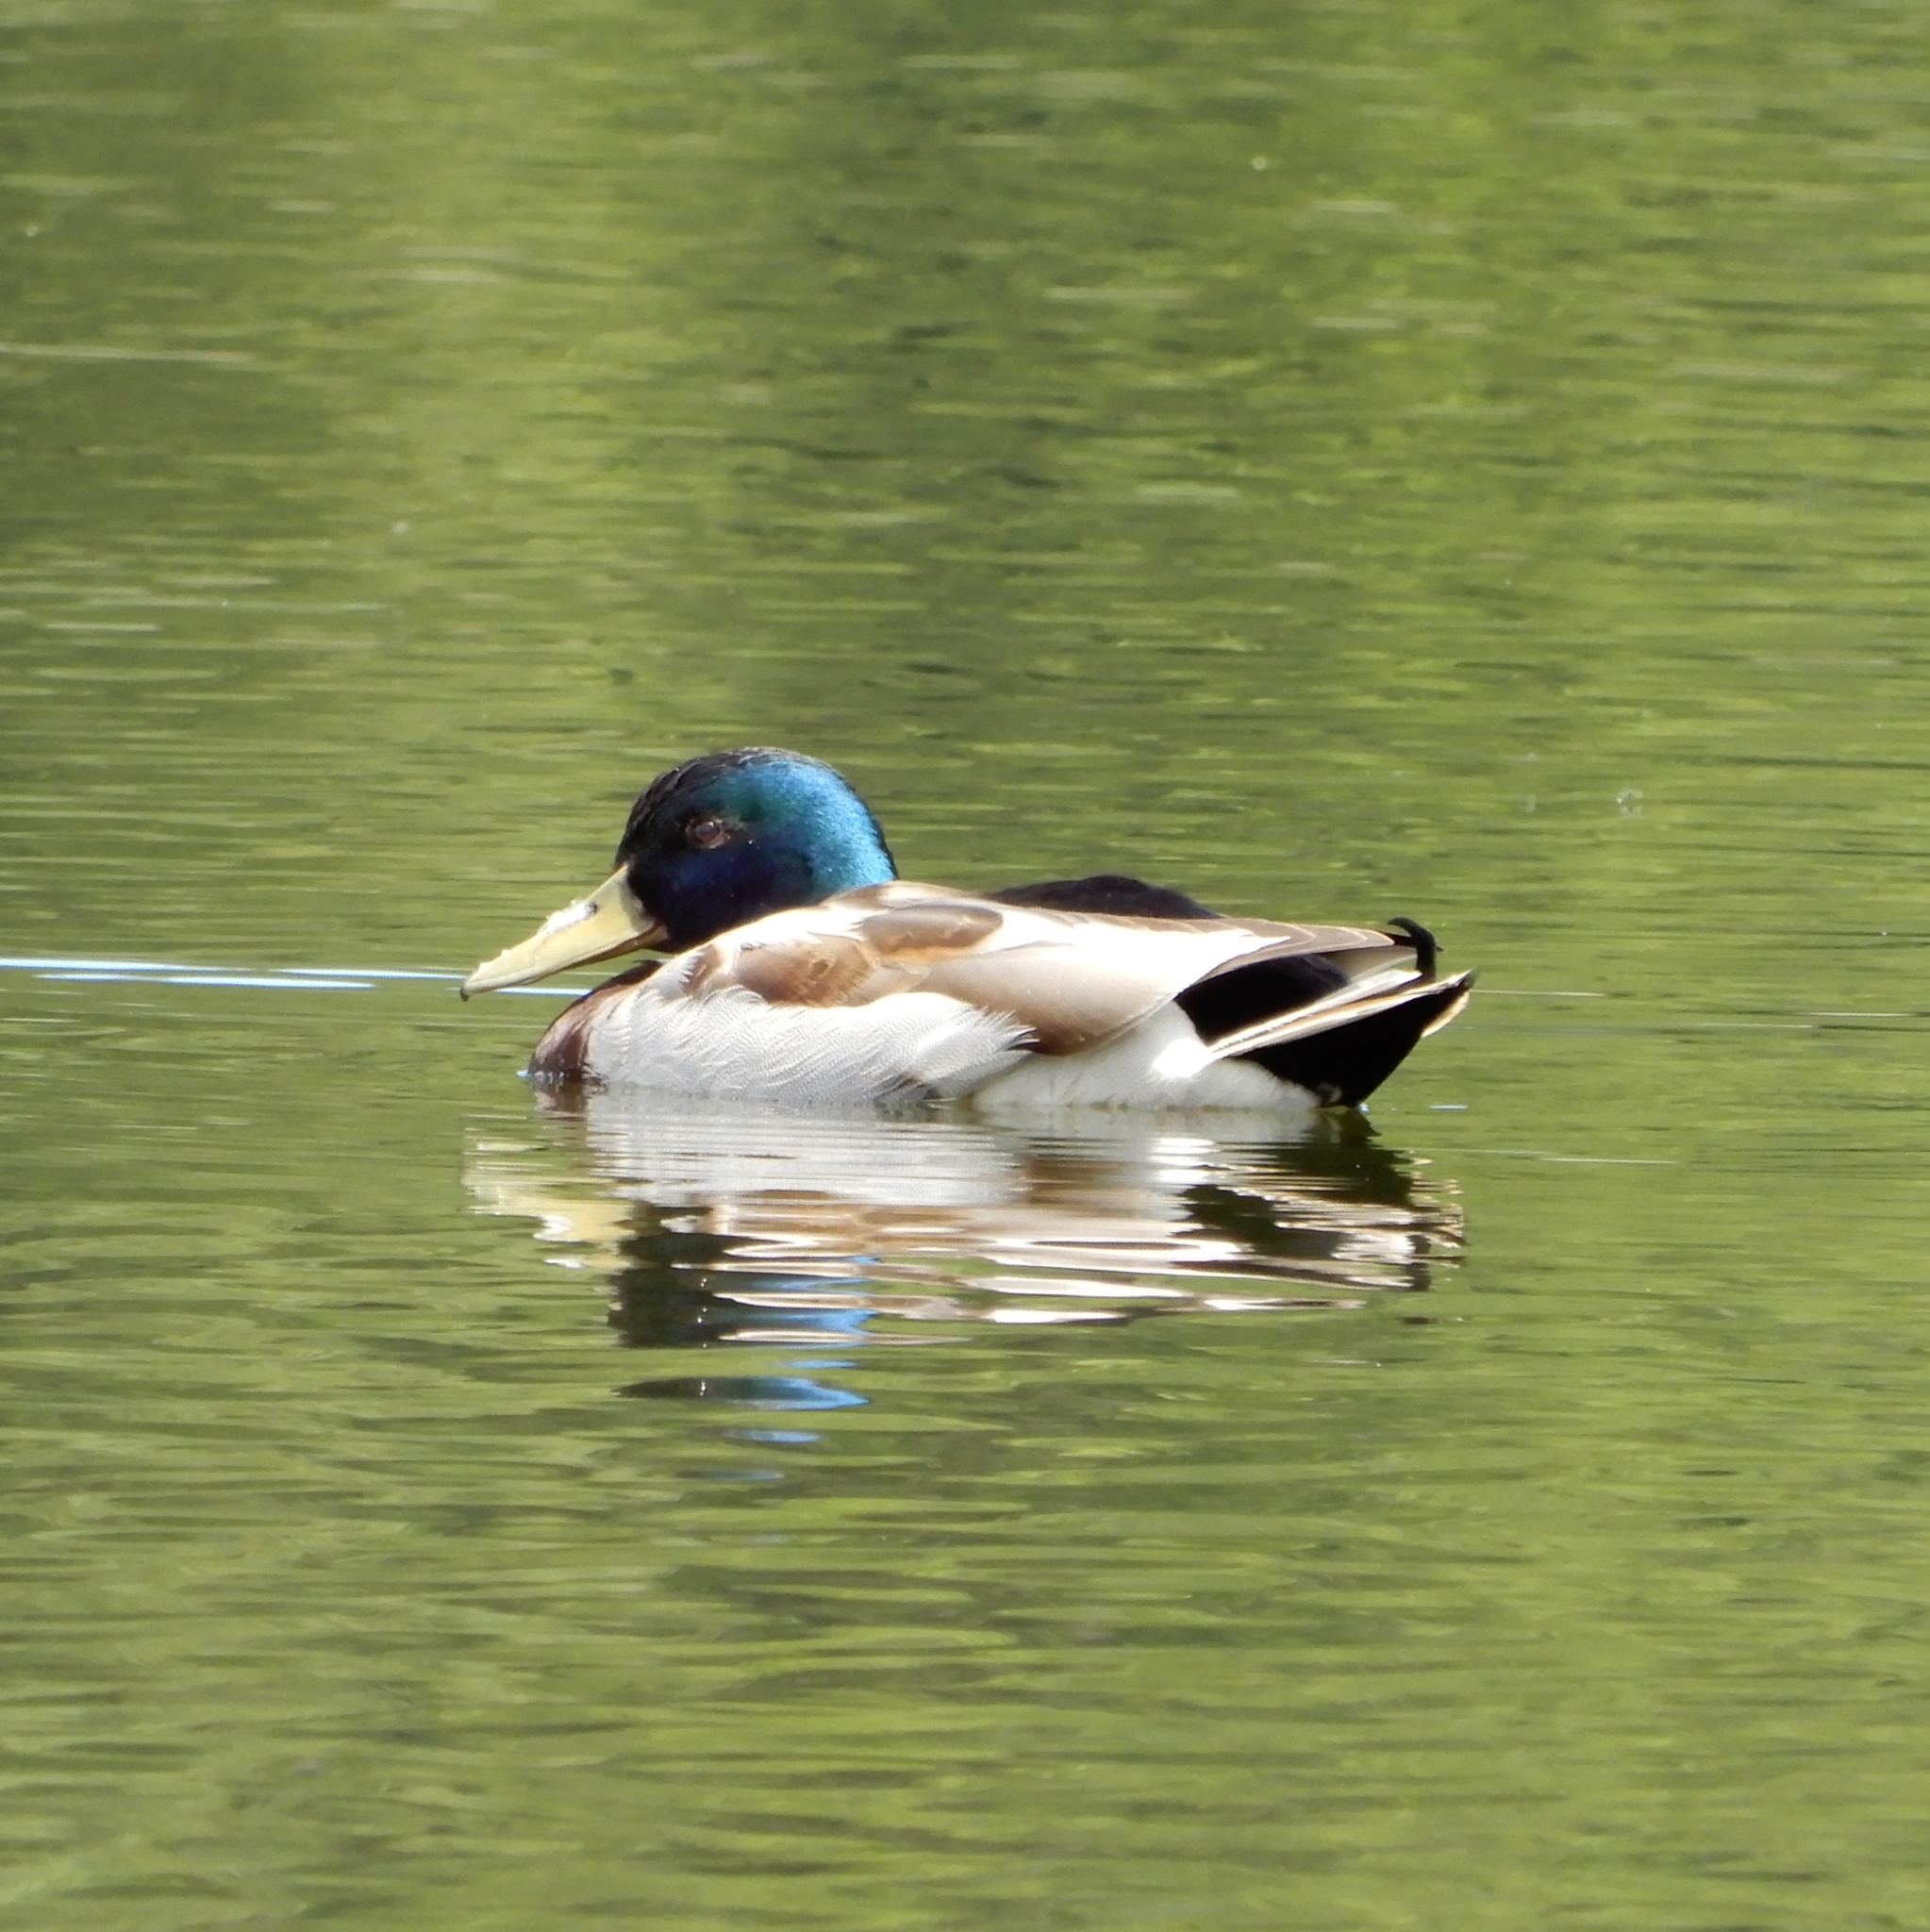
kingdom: Animalia
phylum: Chordata
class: Aves
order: Anseriformes
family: Anatidae
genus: Anas
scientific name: Anas platyrhynchos
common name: Mallard
